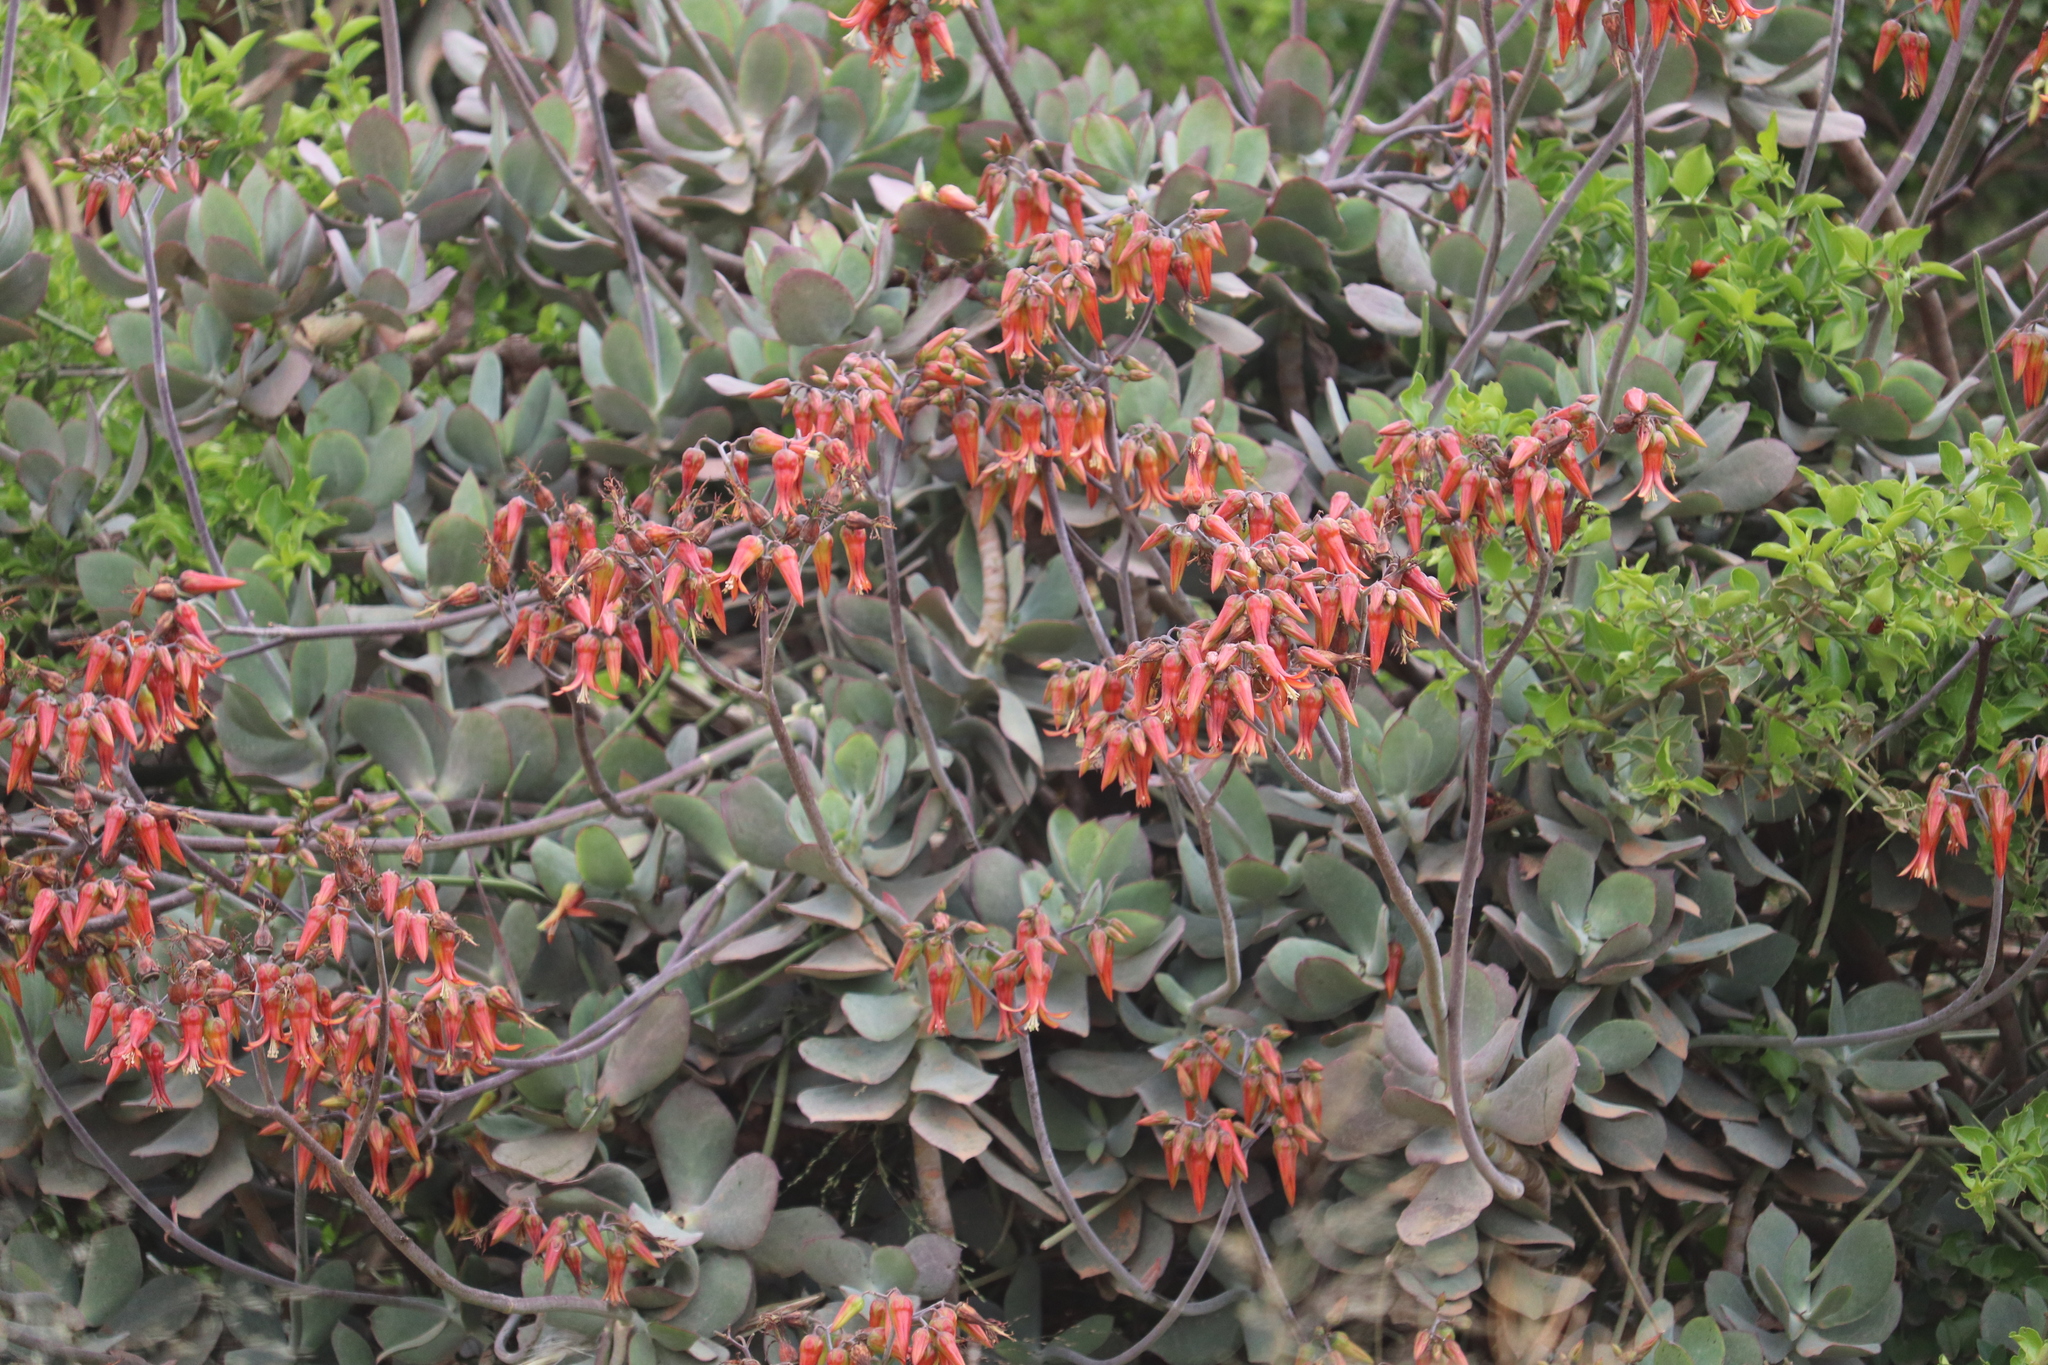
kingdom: Plantae
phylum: Tracheophyta
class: Magnoliopsida
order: Saxifragales
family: Crassulaceae
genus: Cotyledon
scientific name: Cotyledon velutina
